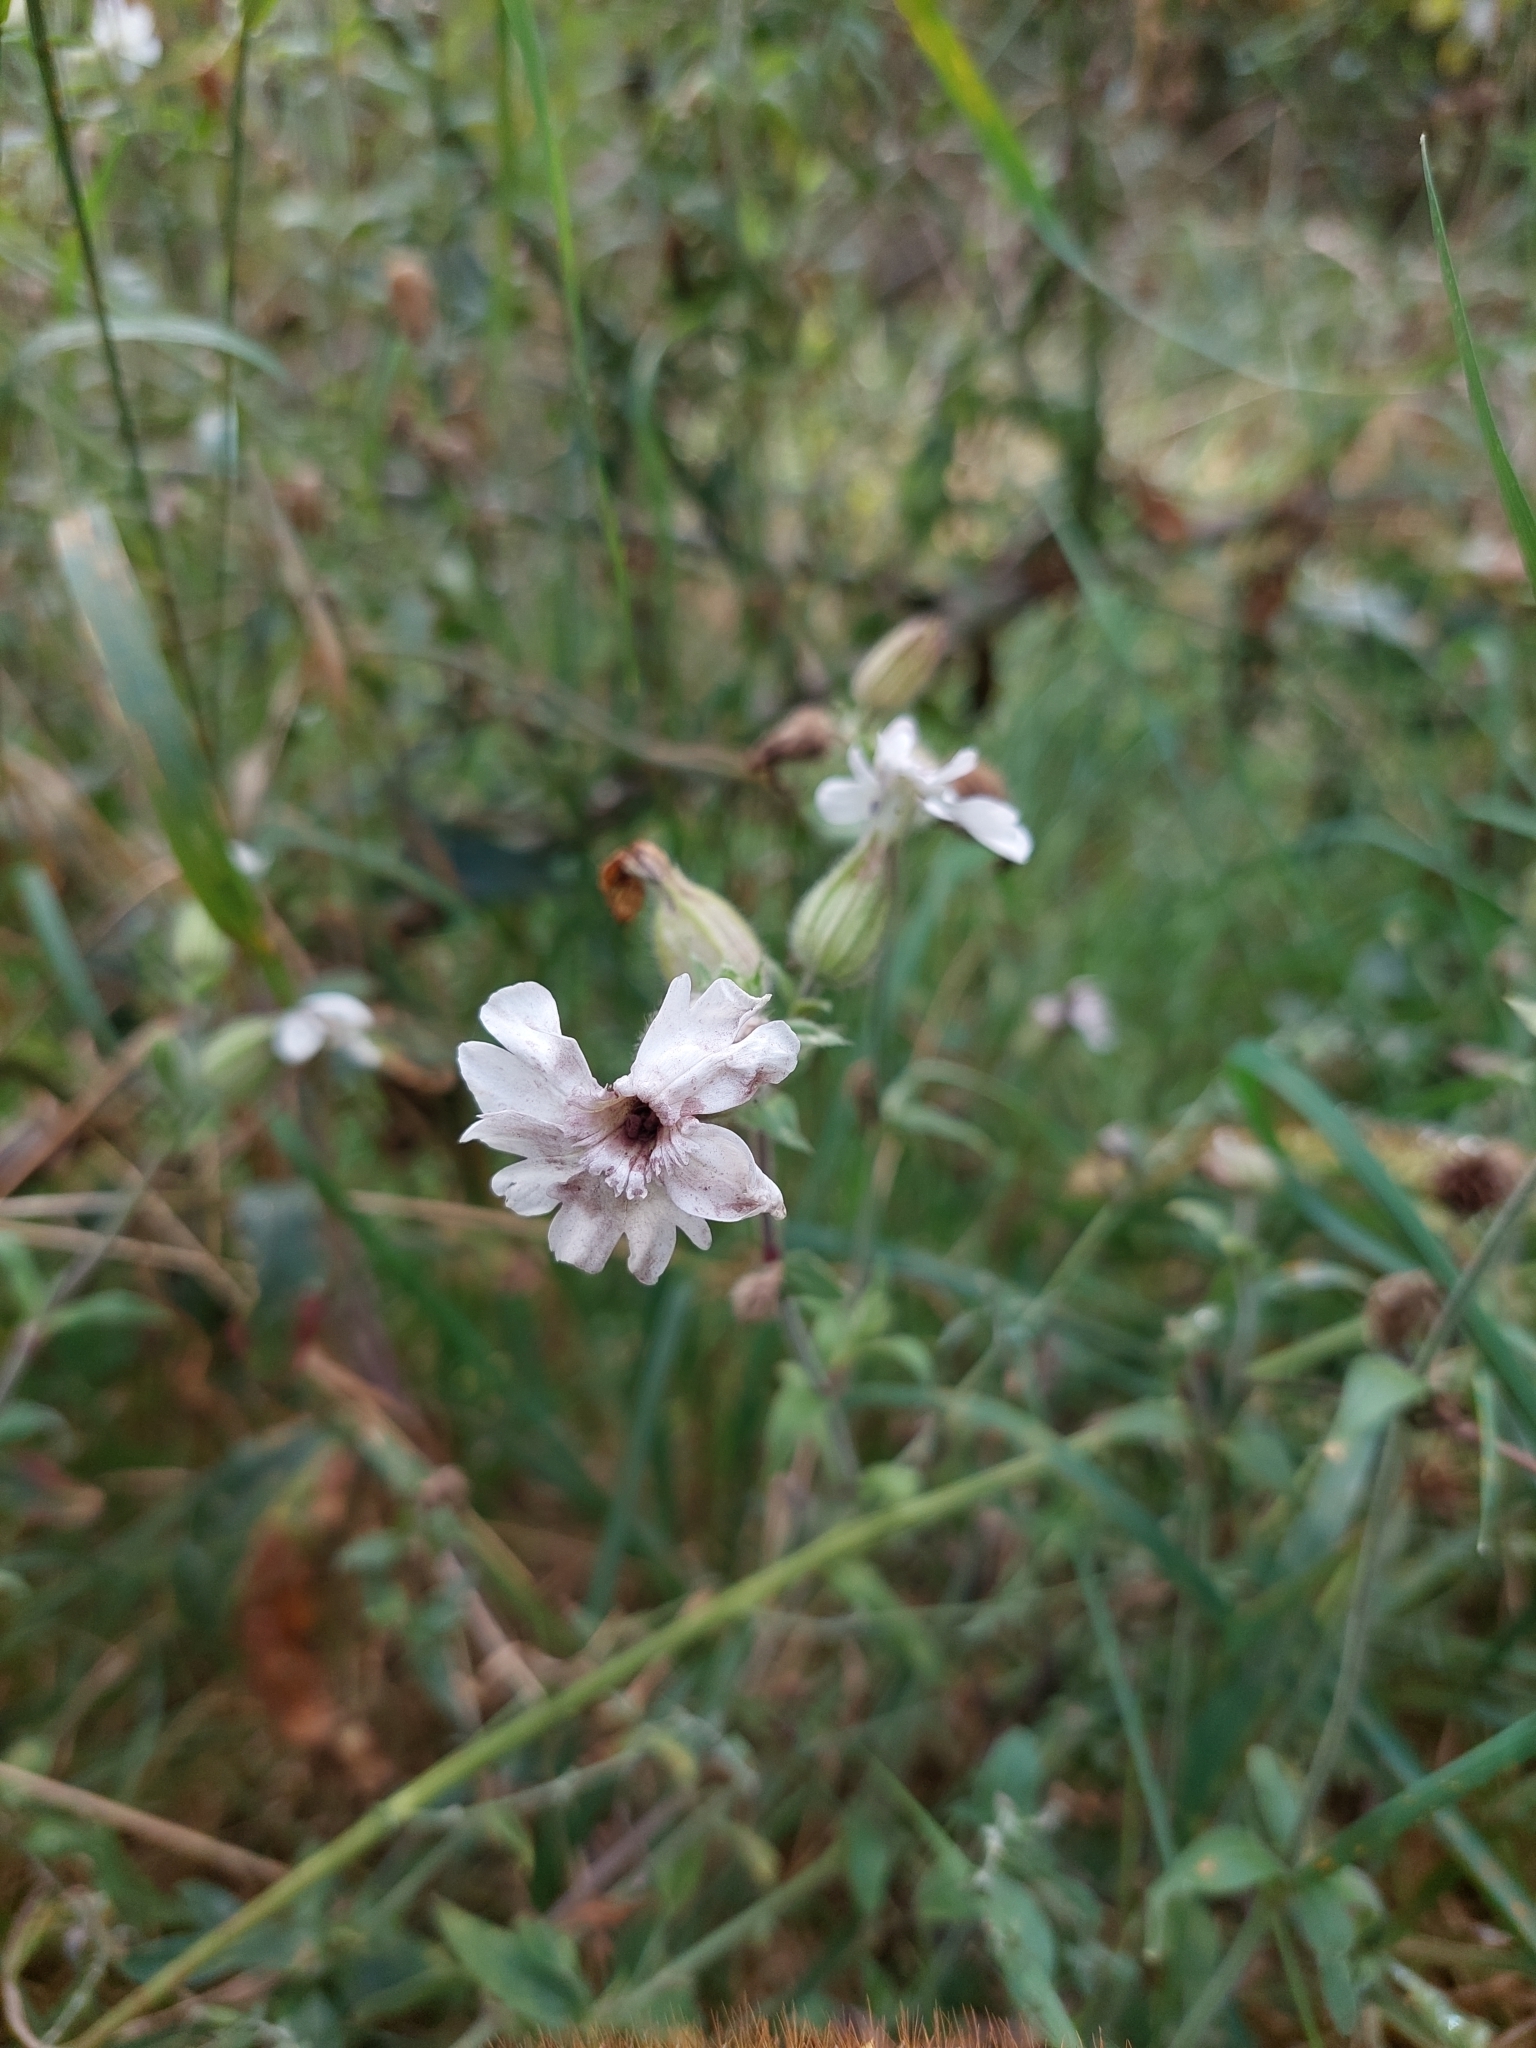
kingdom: Plantae
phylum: Tracheophyta
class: Magnoliopsida
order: Caryophyllales
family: Caryophyllaceae
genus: Silene
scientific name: Silene latifolia
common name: White campion
